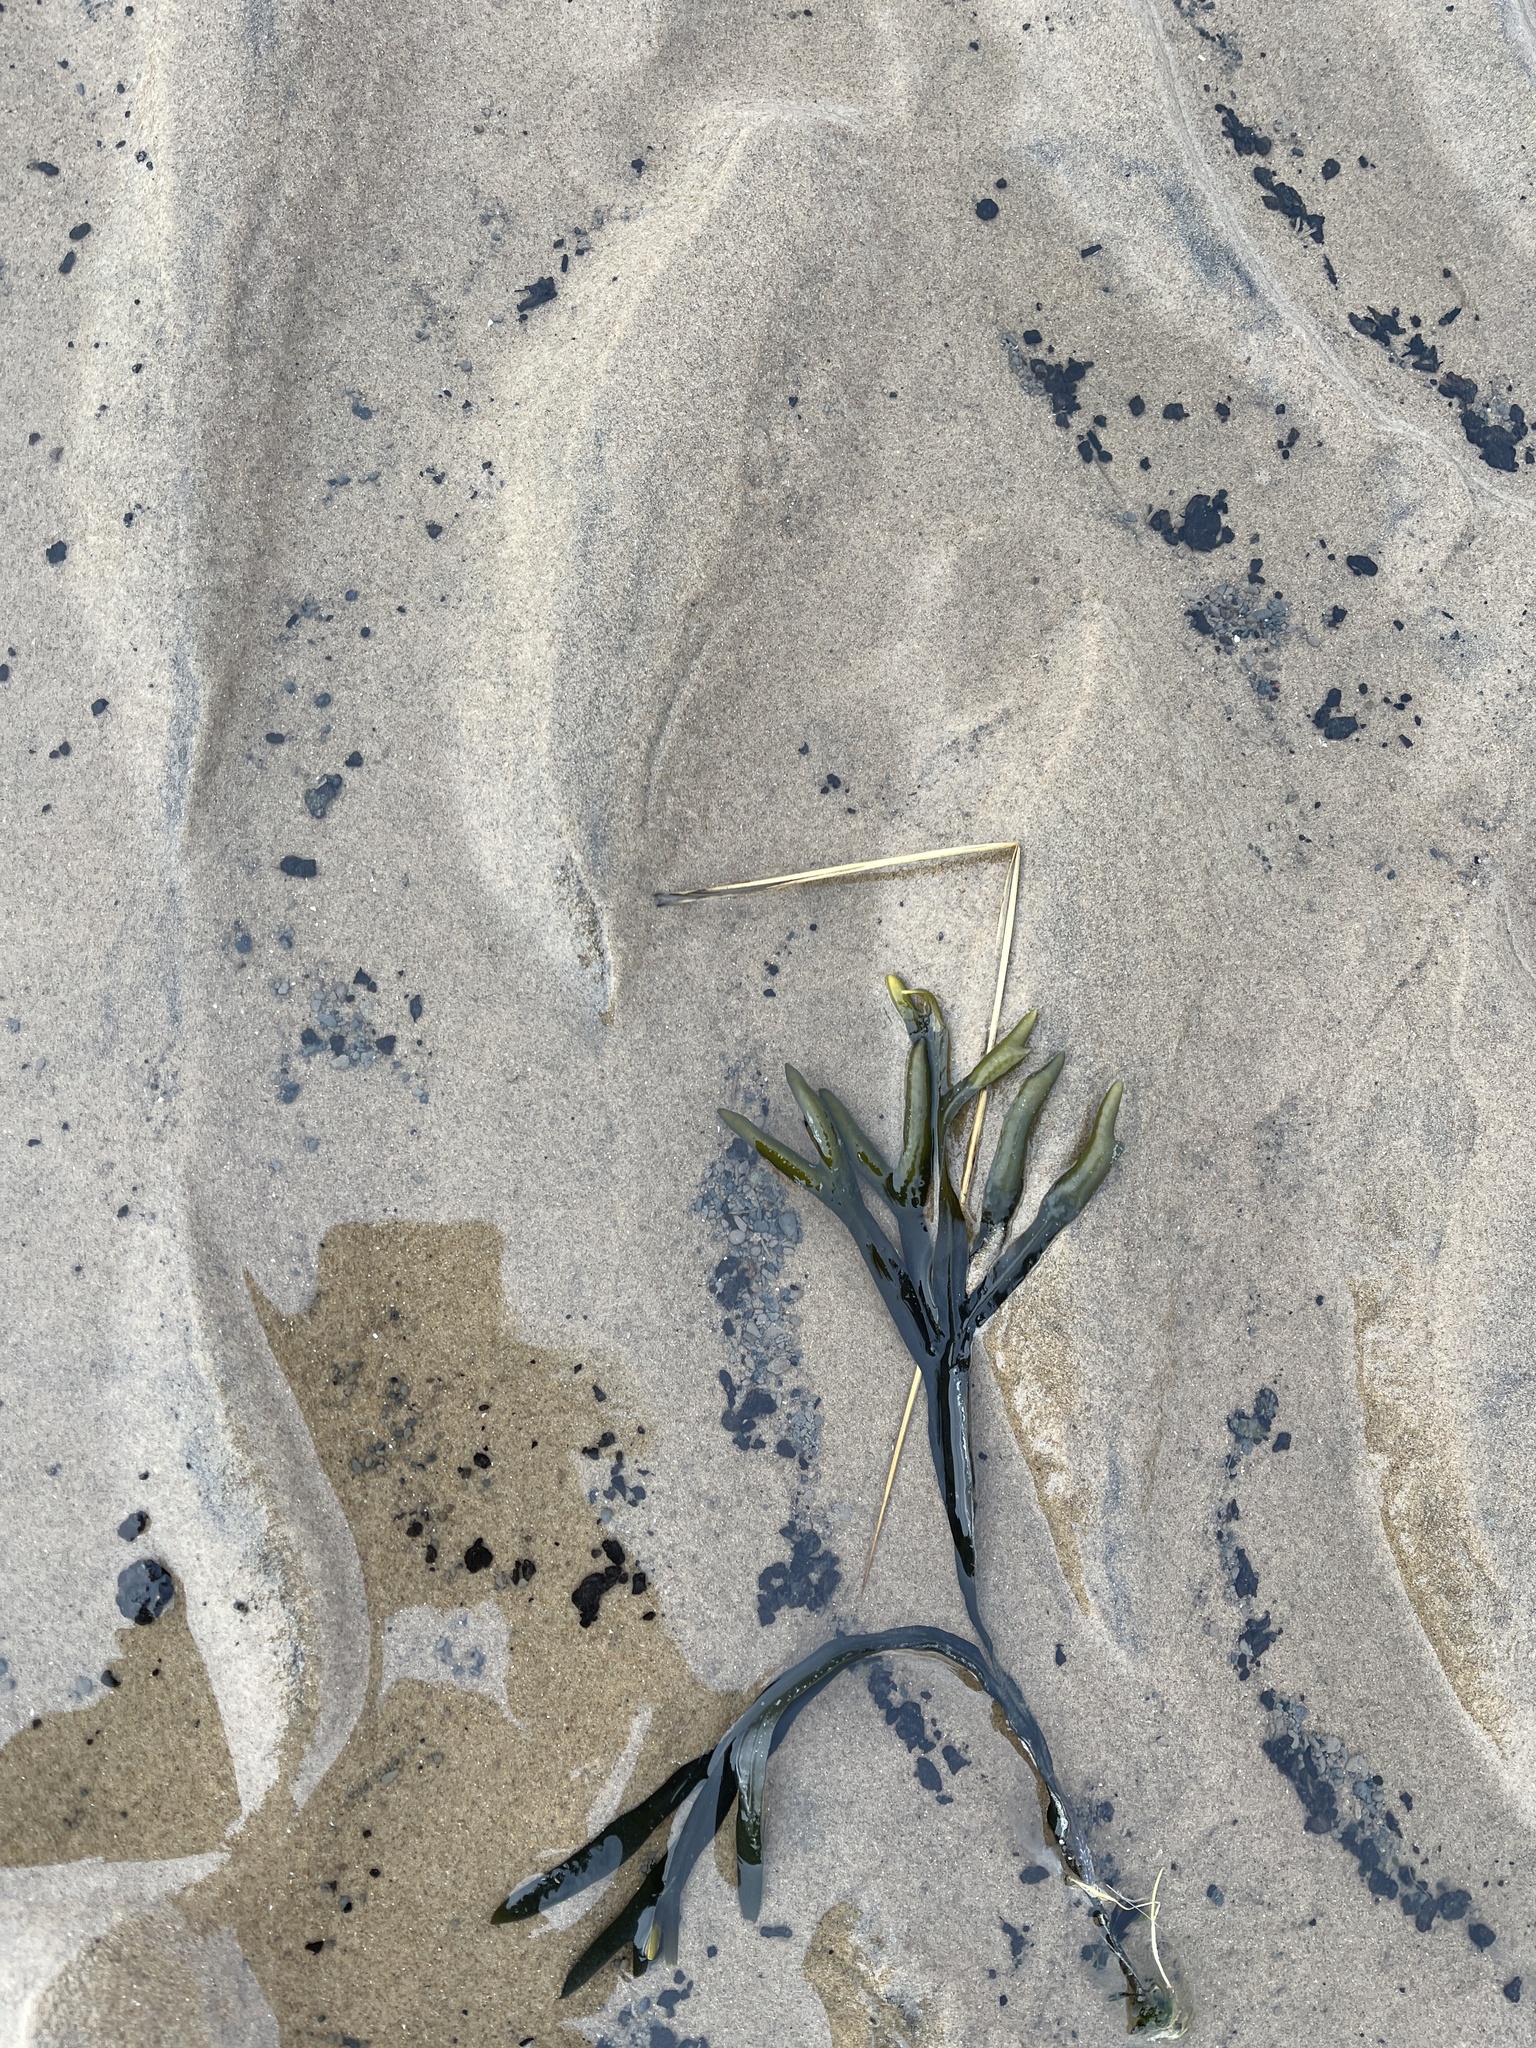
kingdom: Chromista
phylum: Ochrophyta
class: Phaeophyceae
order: Fucales
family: Fucaceae
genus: Fucus
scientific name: Fucus ceranoides
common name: Horned wrack
